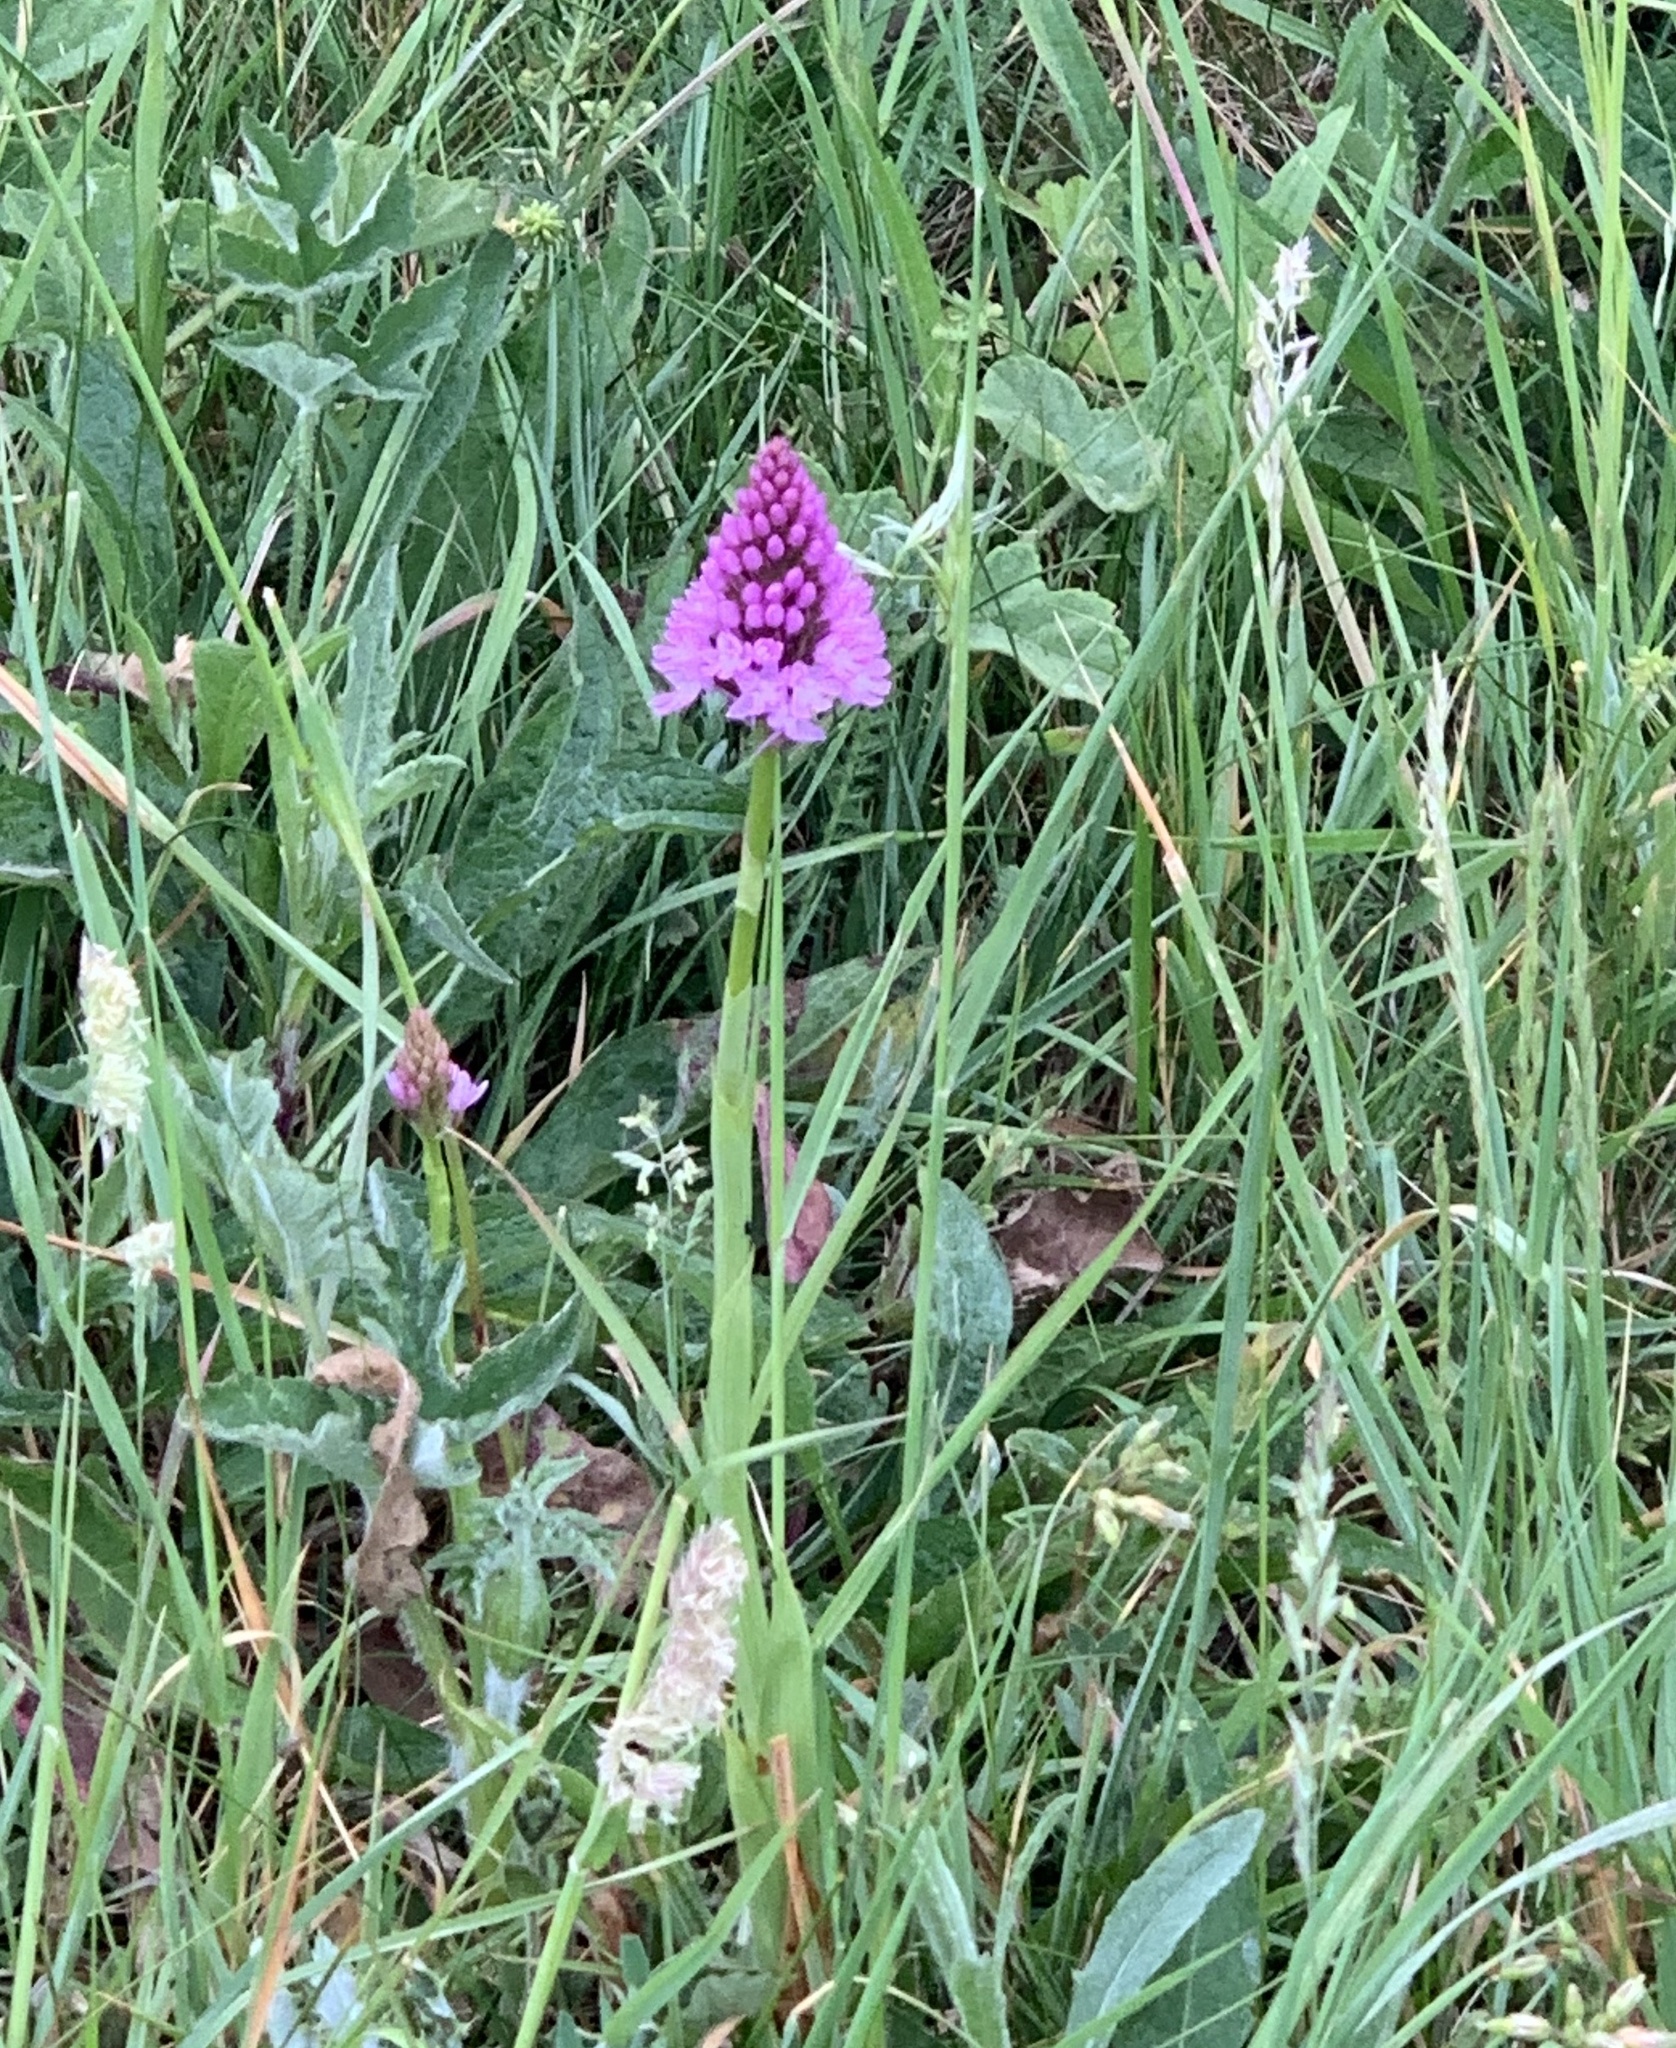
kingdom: Plantae
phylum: Tracheophyta
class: Liliopsida
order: Asparagales
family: Orchidaceae
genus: Anacamptis
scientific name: Anacamptis pyramidalis
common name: Pyramidal orchid
